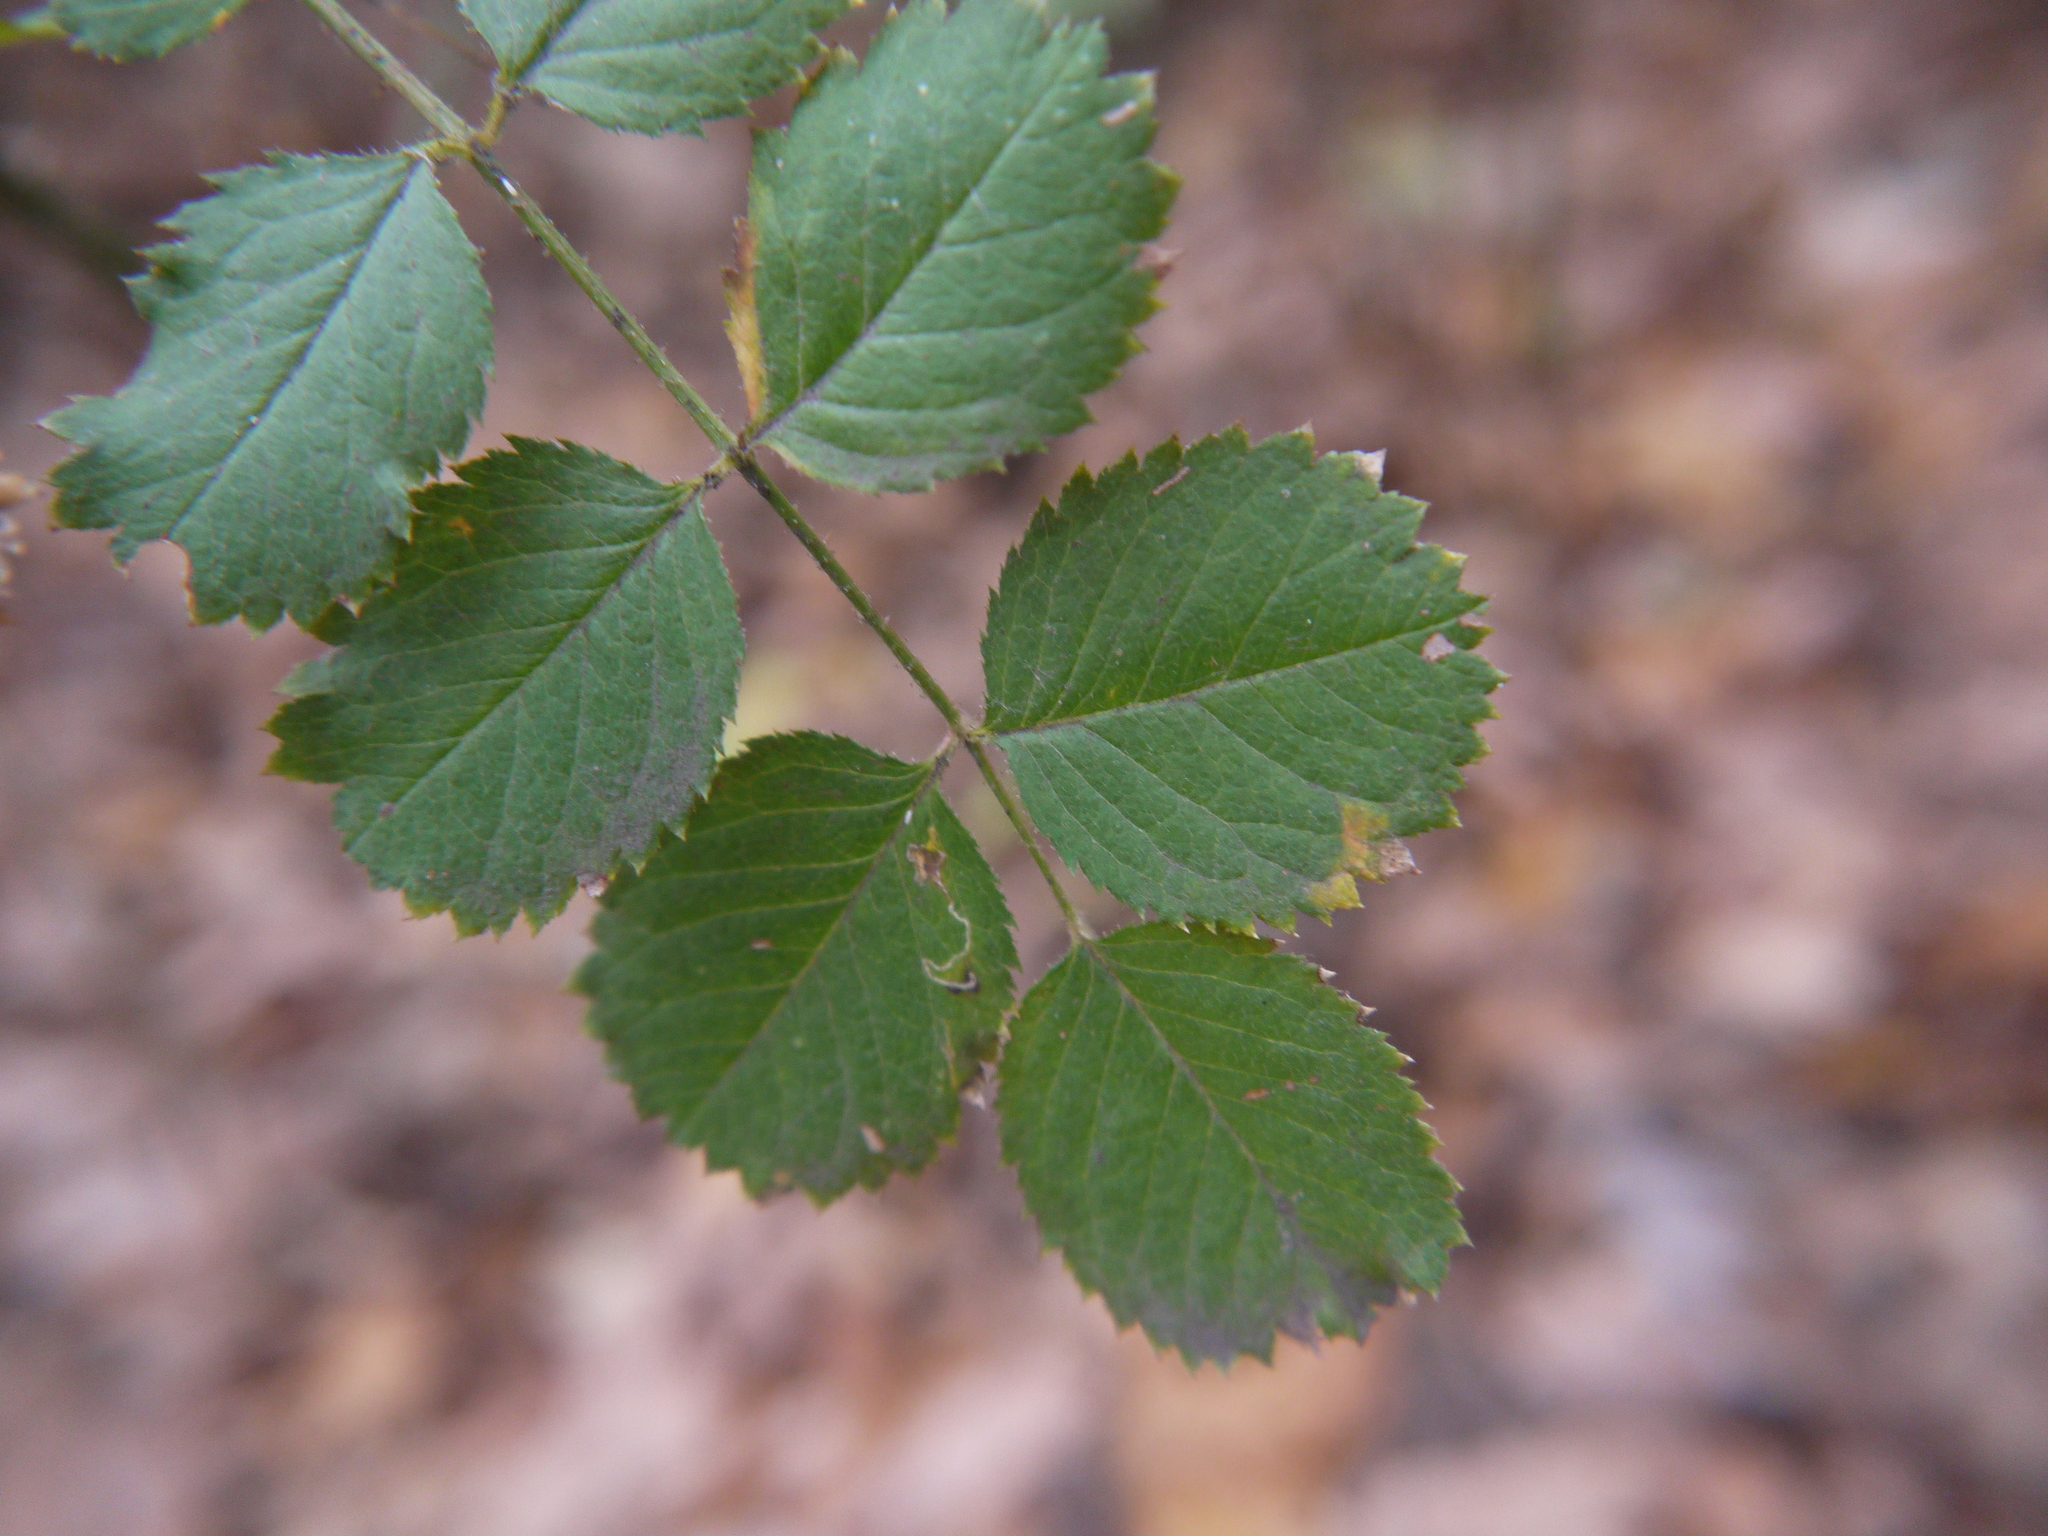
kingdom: Animalia
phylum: Arthropoda
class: Insecta
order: Lepidoptera
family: Nepticulidae
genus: Stigmella
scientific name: Stigmella anomalella
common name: Rose leaf-miner
